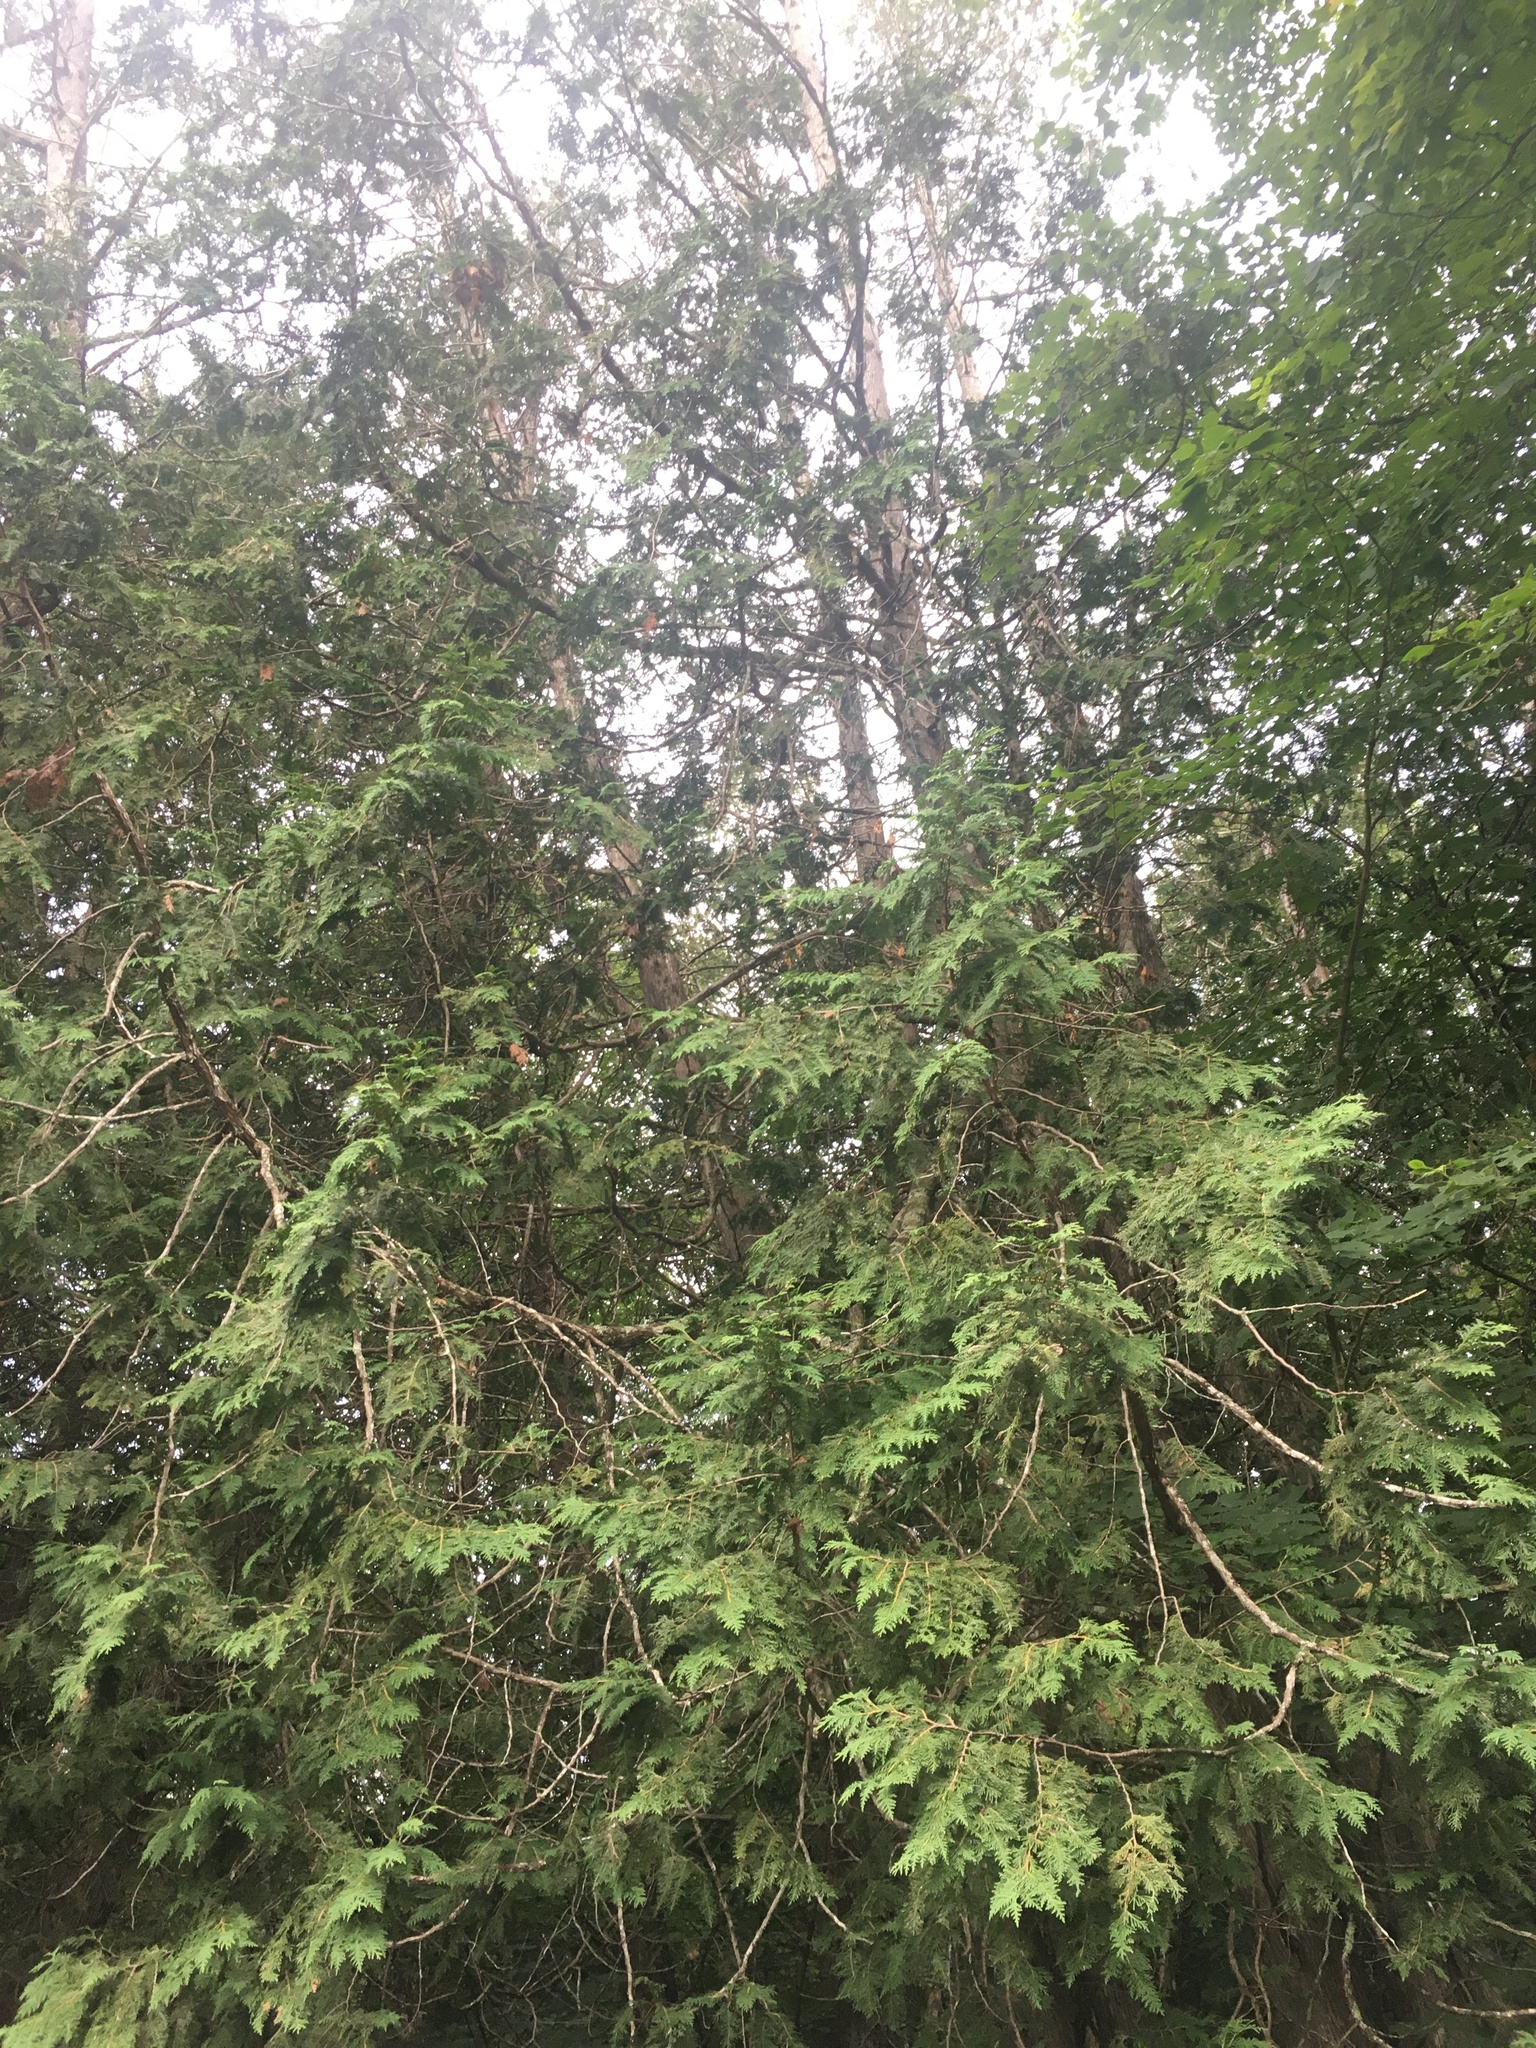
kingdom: Plantae
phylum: Tracheophyta
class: Pinopsida
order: Pinales
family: Cupressaceae
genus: Thuja
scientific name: Thuja occidentalis
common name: Northern white-cedar
